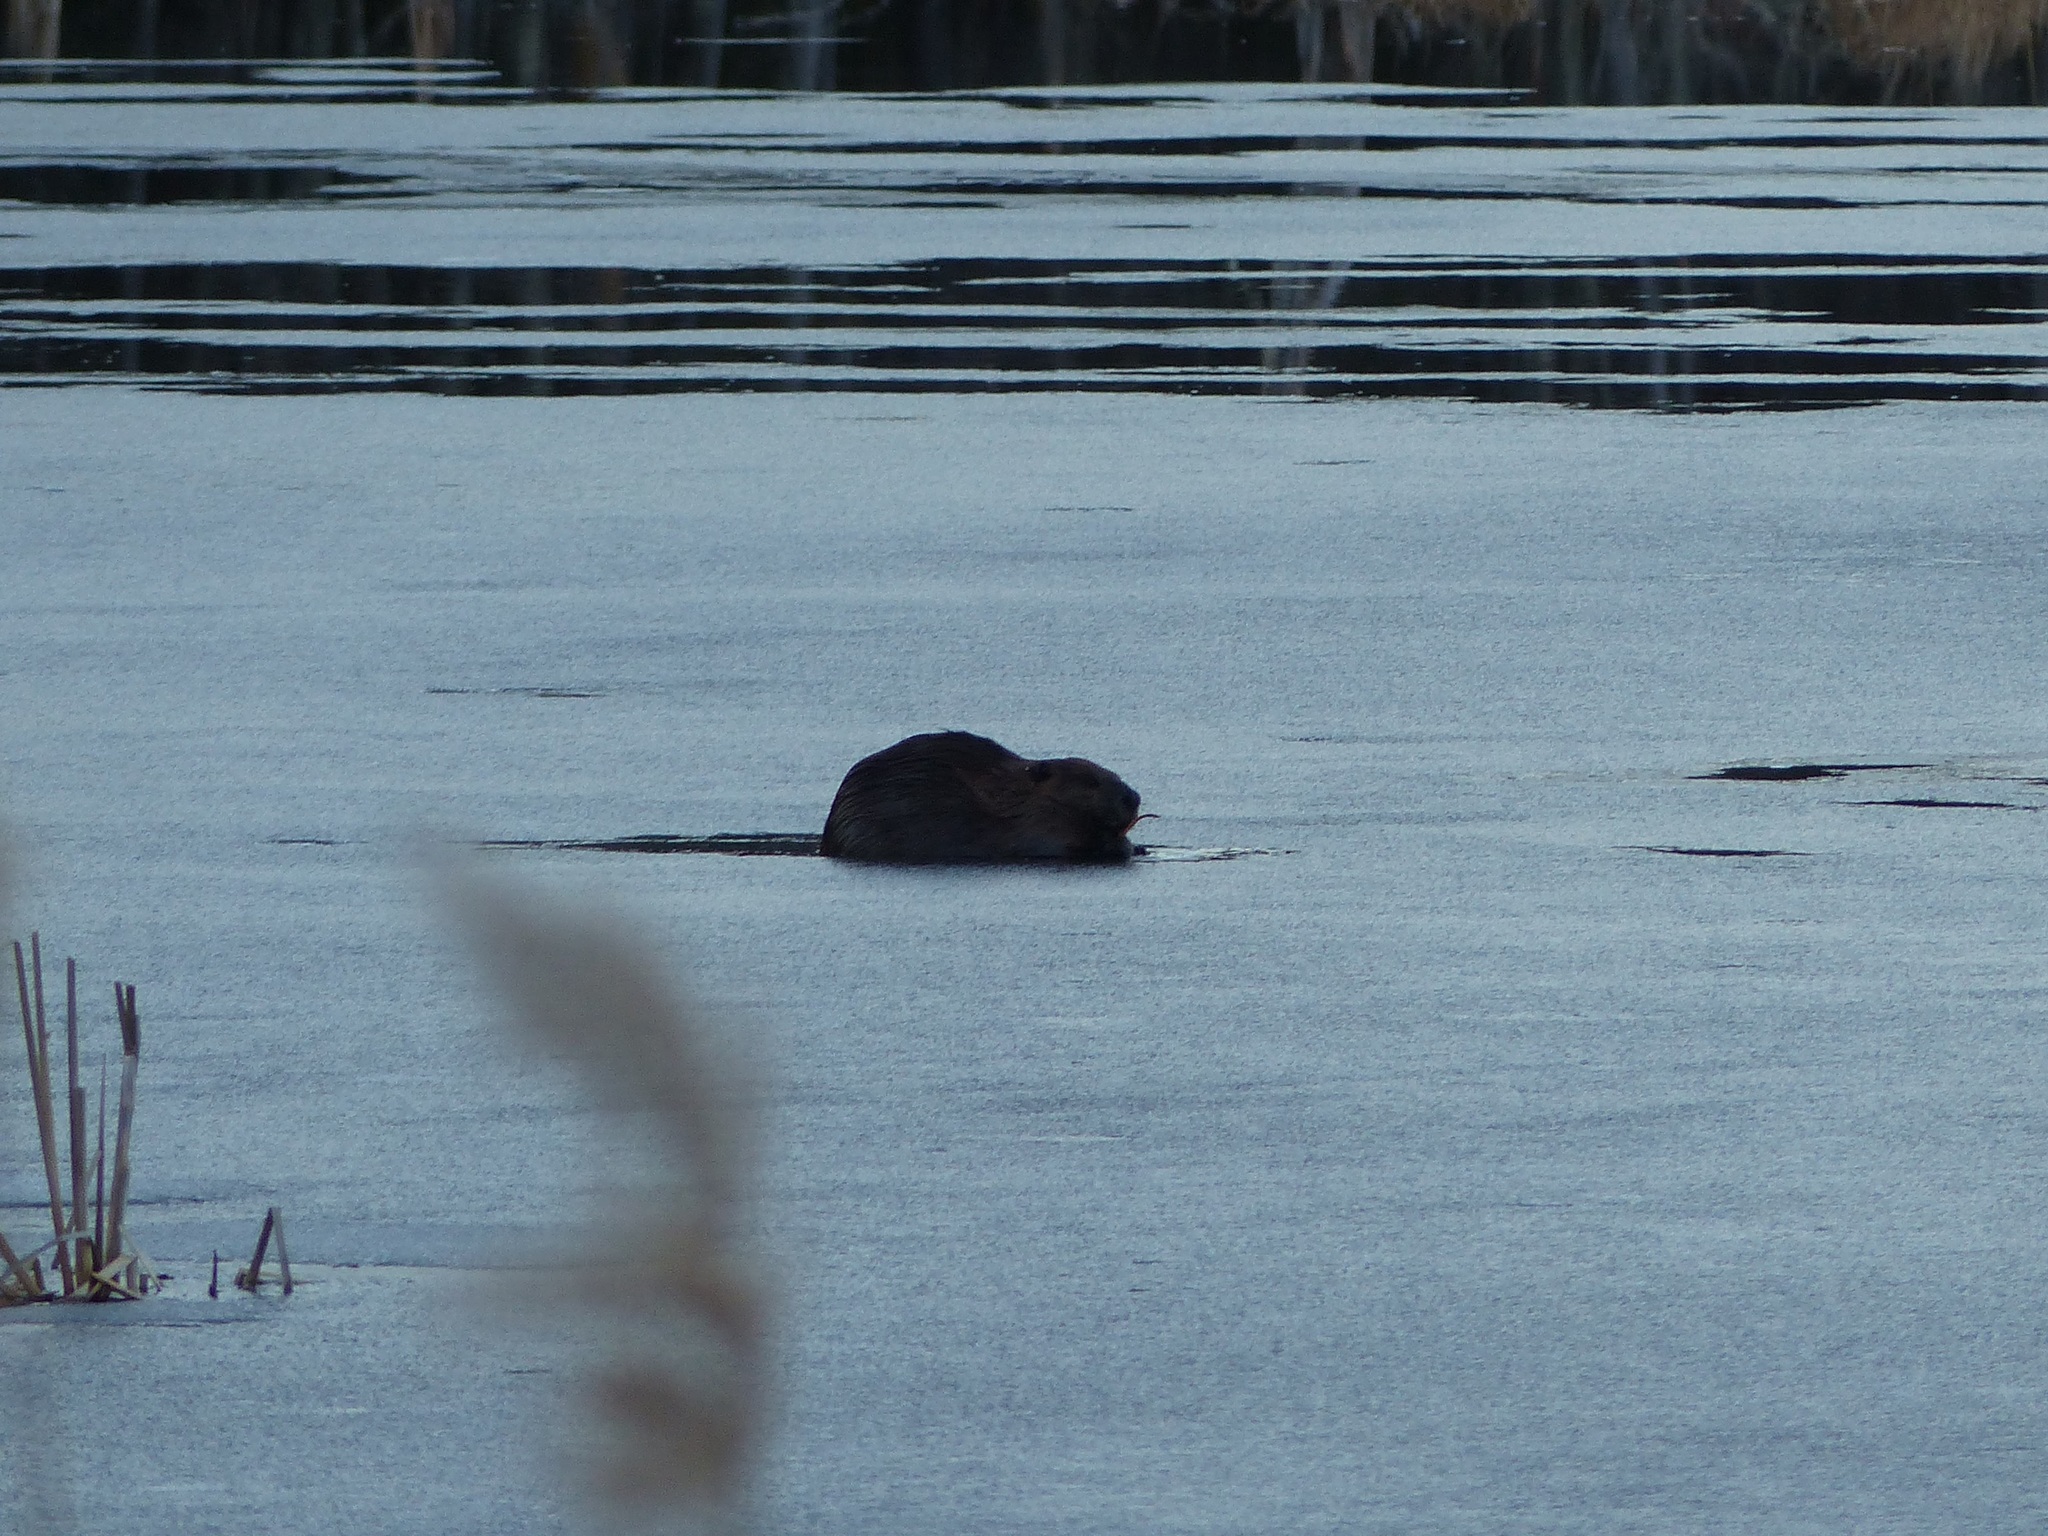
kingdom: Animalia
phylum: Chordata
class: Mammalia
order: Rodentia
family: Castoridae
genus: Castor
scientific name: Castor canadensis
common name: American beaver
